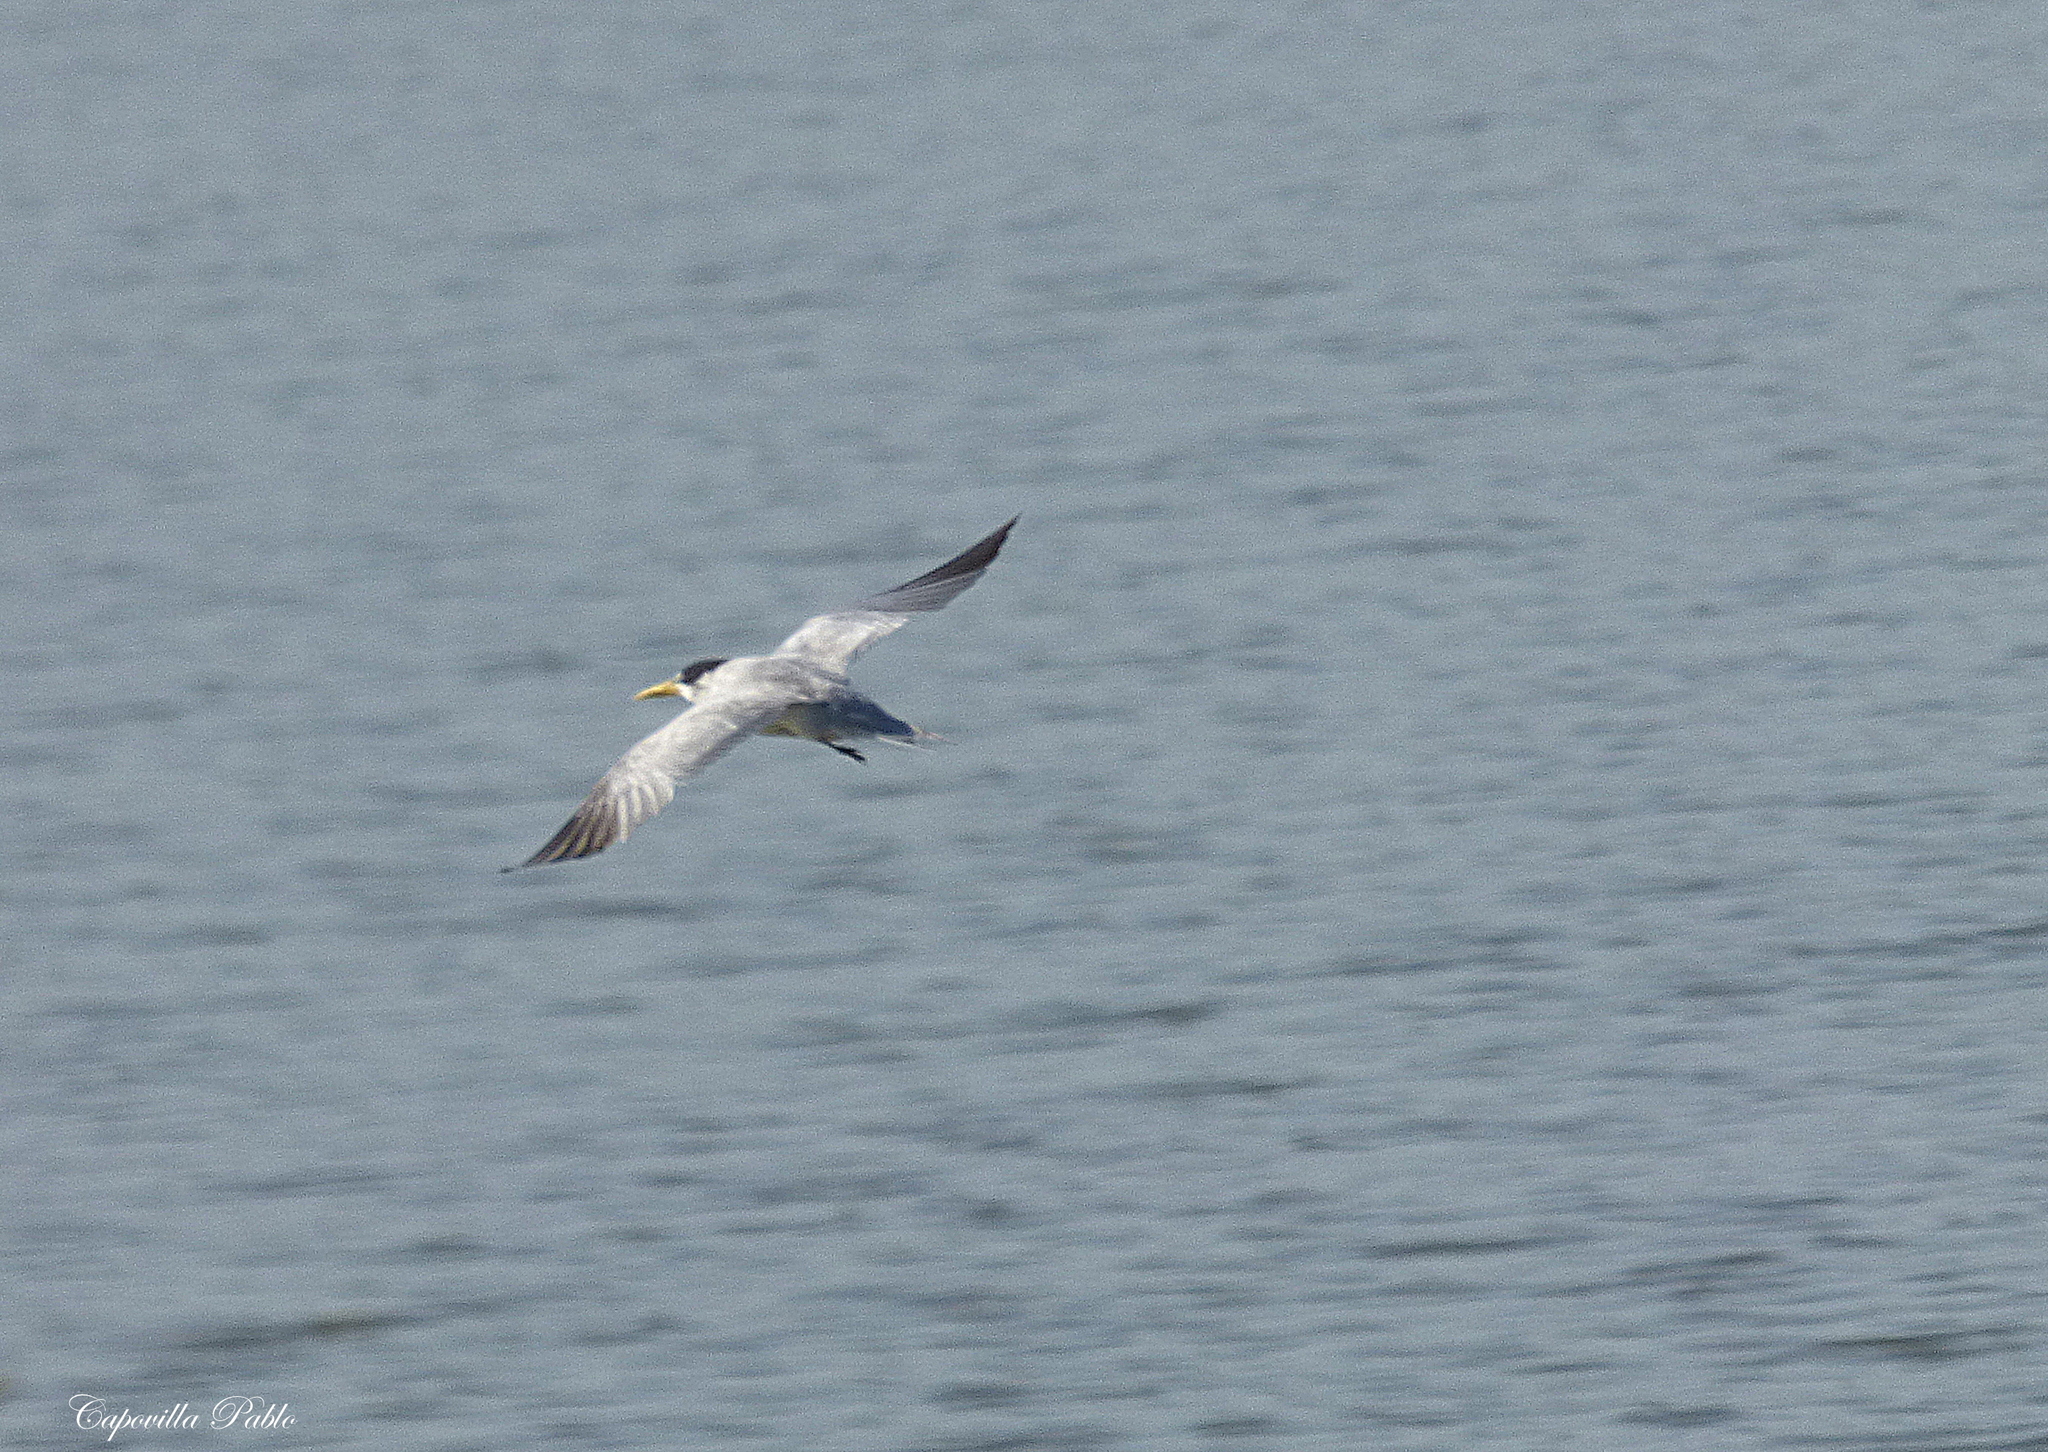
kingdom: Animalia
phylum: Chordata
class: Aves
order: Charadriiformes
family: Laridae
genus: Phaetusa
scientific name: Phaetusa simplex
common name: Large-billed tern
